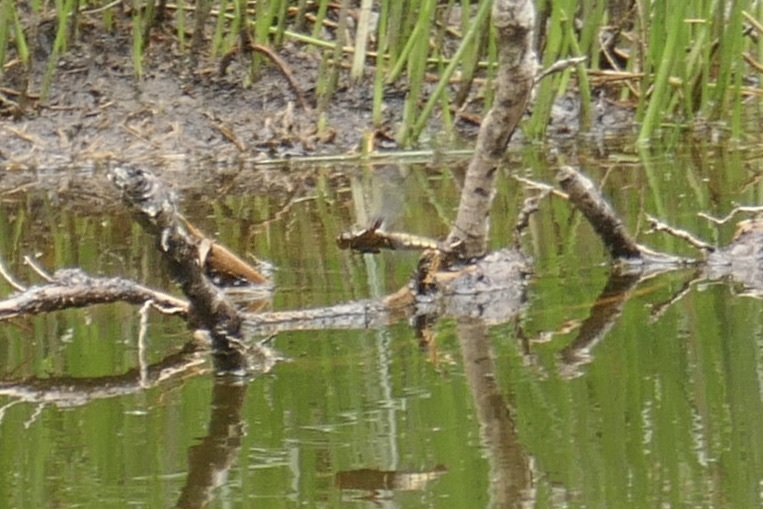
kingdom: Animalia
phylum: Arthropoda
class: Insecta
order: Odonata
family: Libellulidae
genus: Libellula
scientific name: Libellula depressa
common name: Broad-bodied chaser
